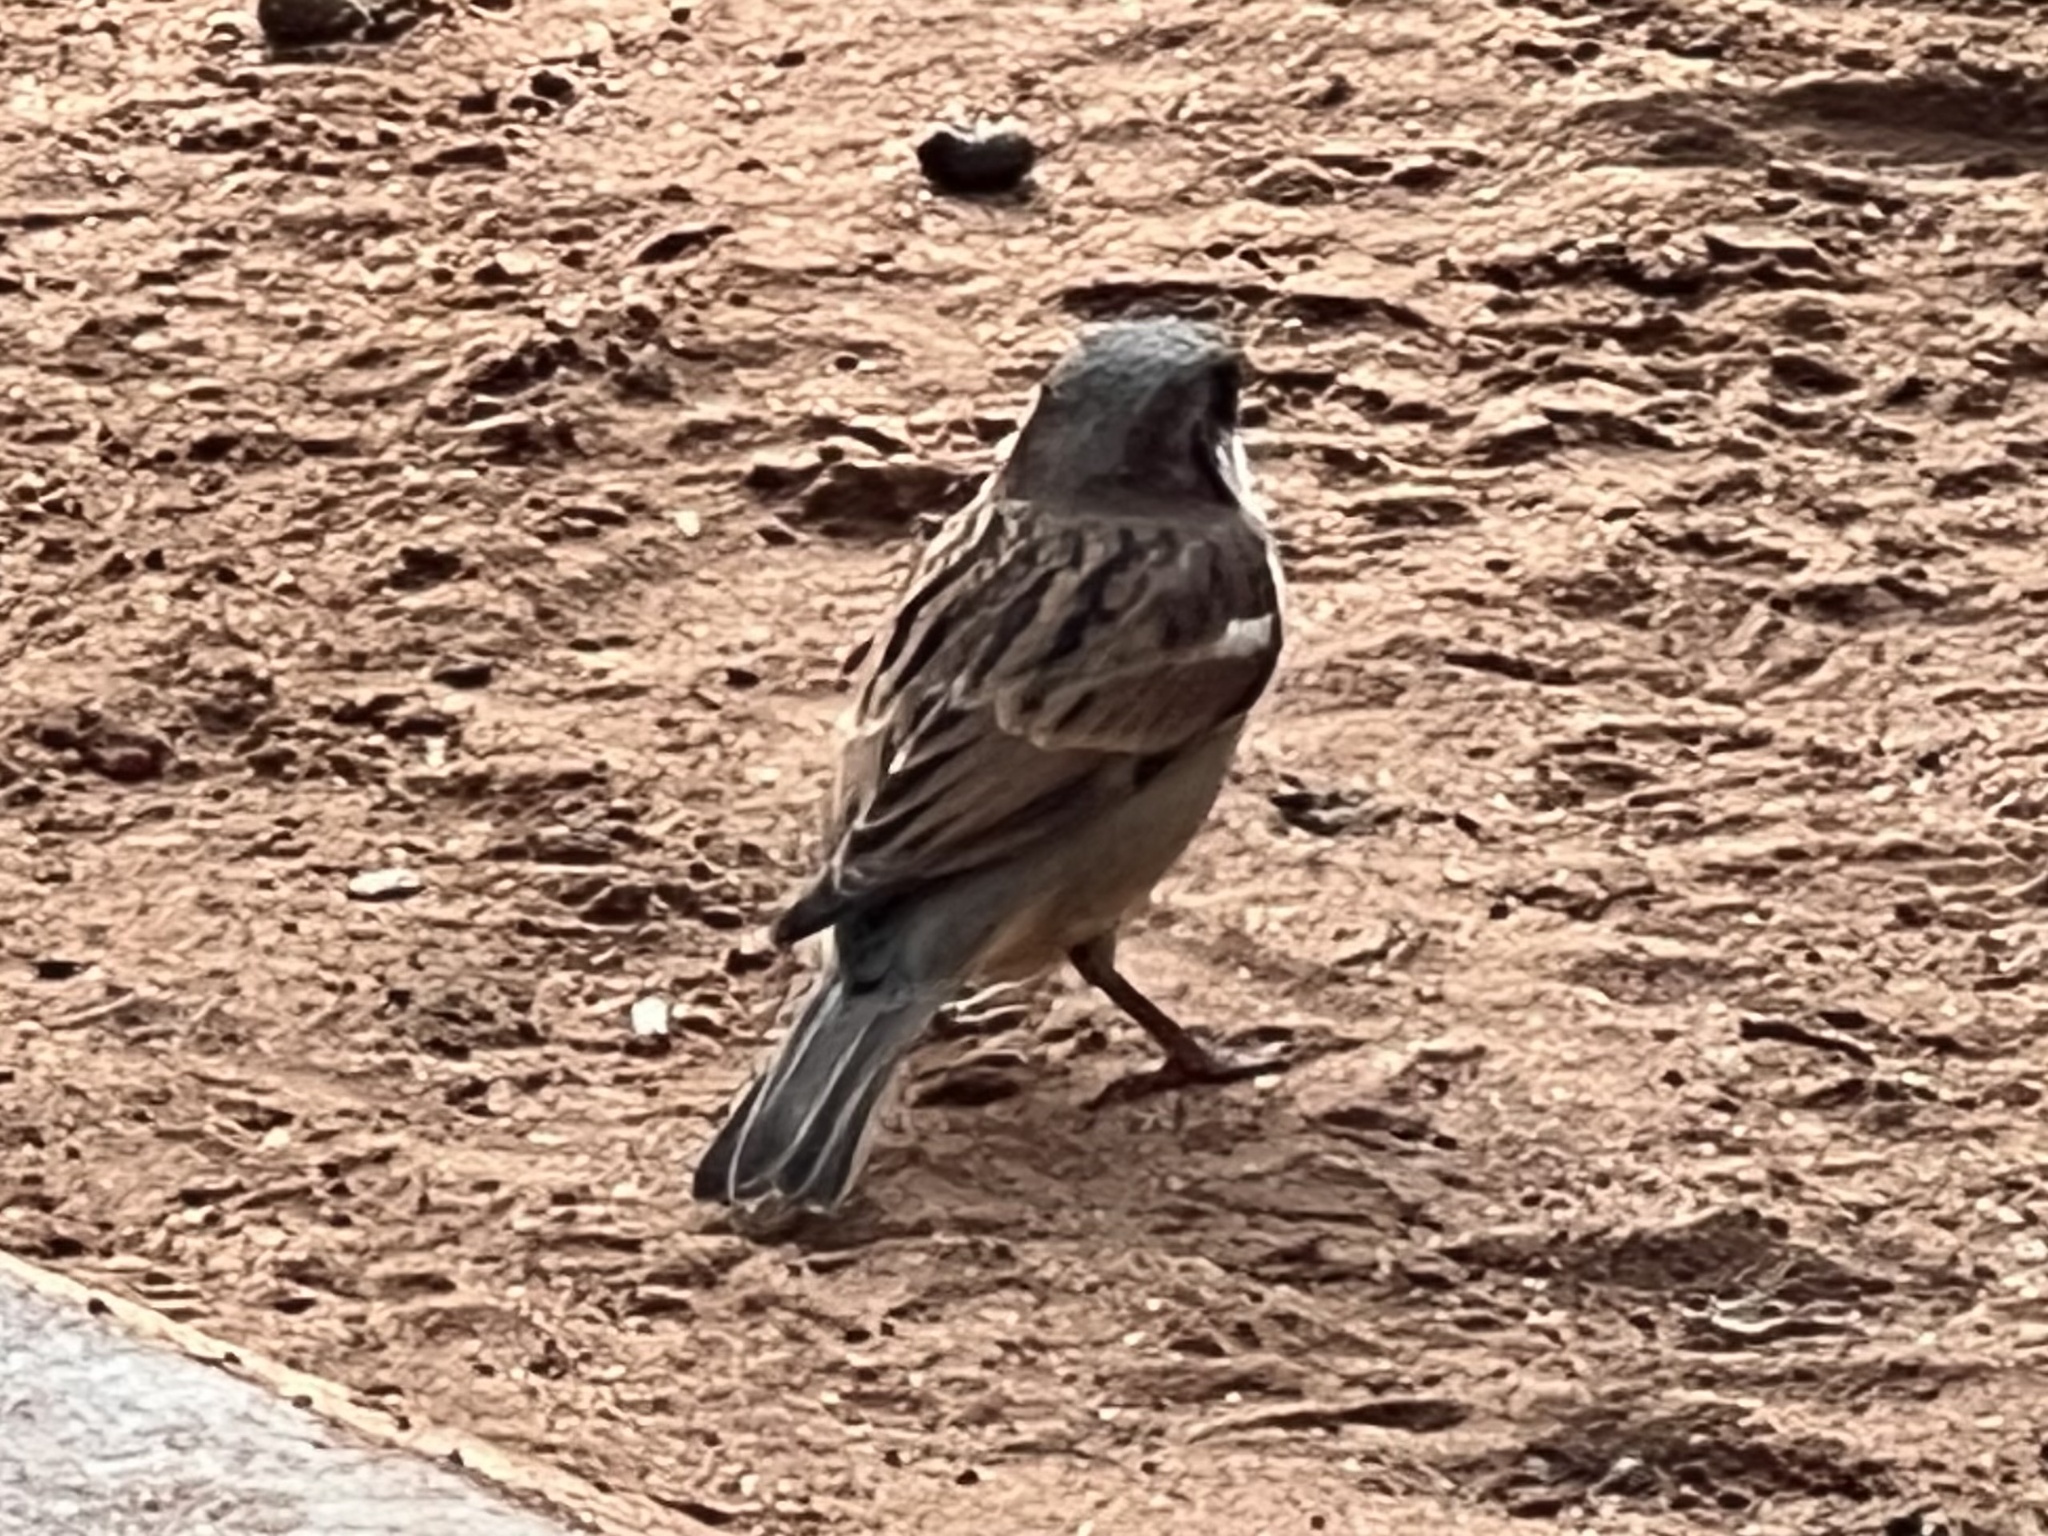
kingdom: Animalia
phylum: Chordata
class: Aves
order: Passeriformes
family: Passeridae
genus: Passer
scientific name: Passer domesticus
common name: House sparrow
